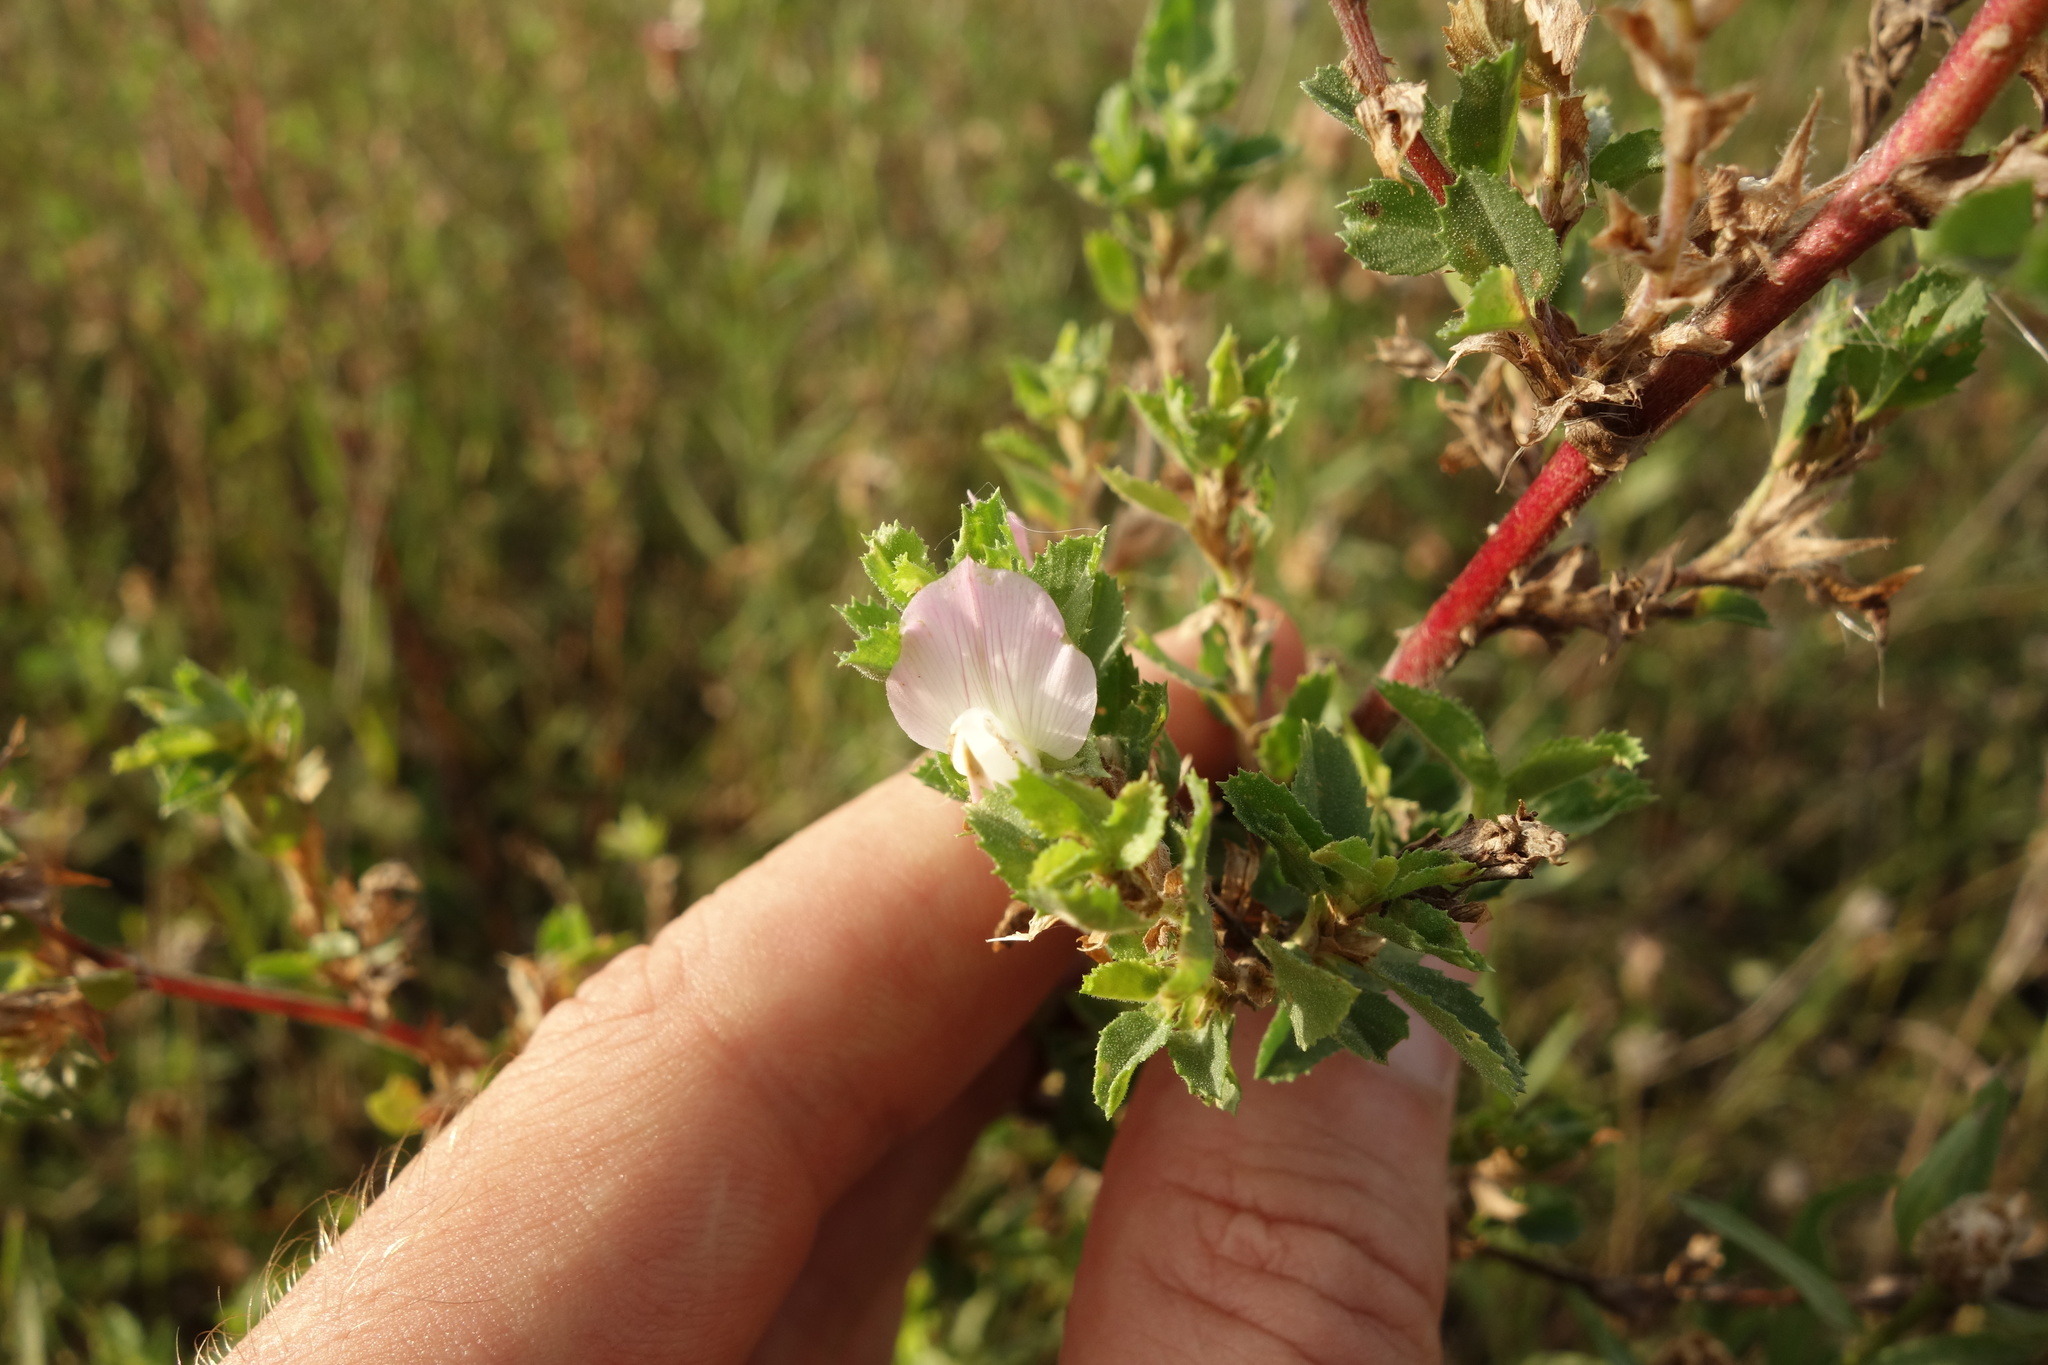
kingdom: Plantae
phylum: Tracheophyta
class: Magnoliopsida
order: Fabales
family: Fabaceae
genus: Ononis
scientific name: Ononis arvensis
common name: Field restharrow
